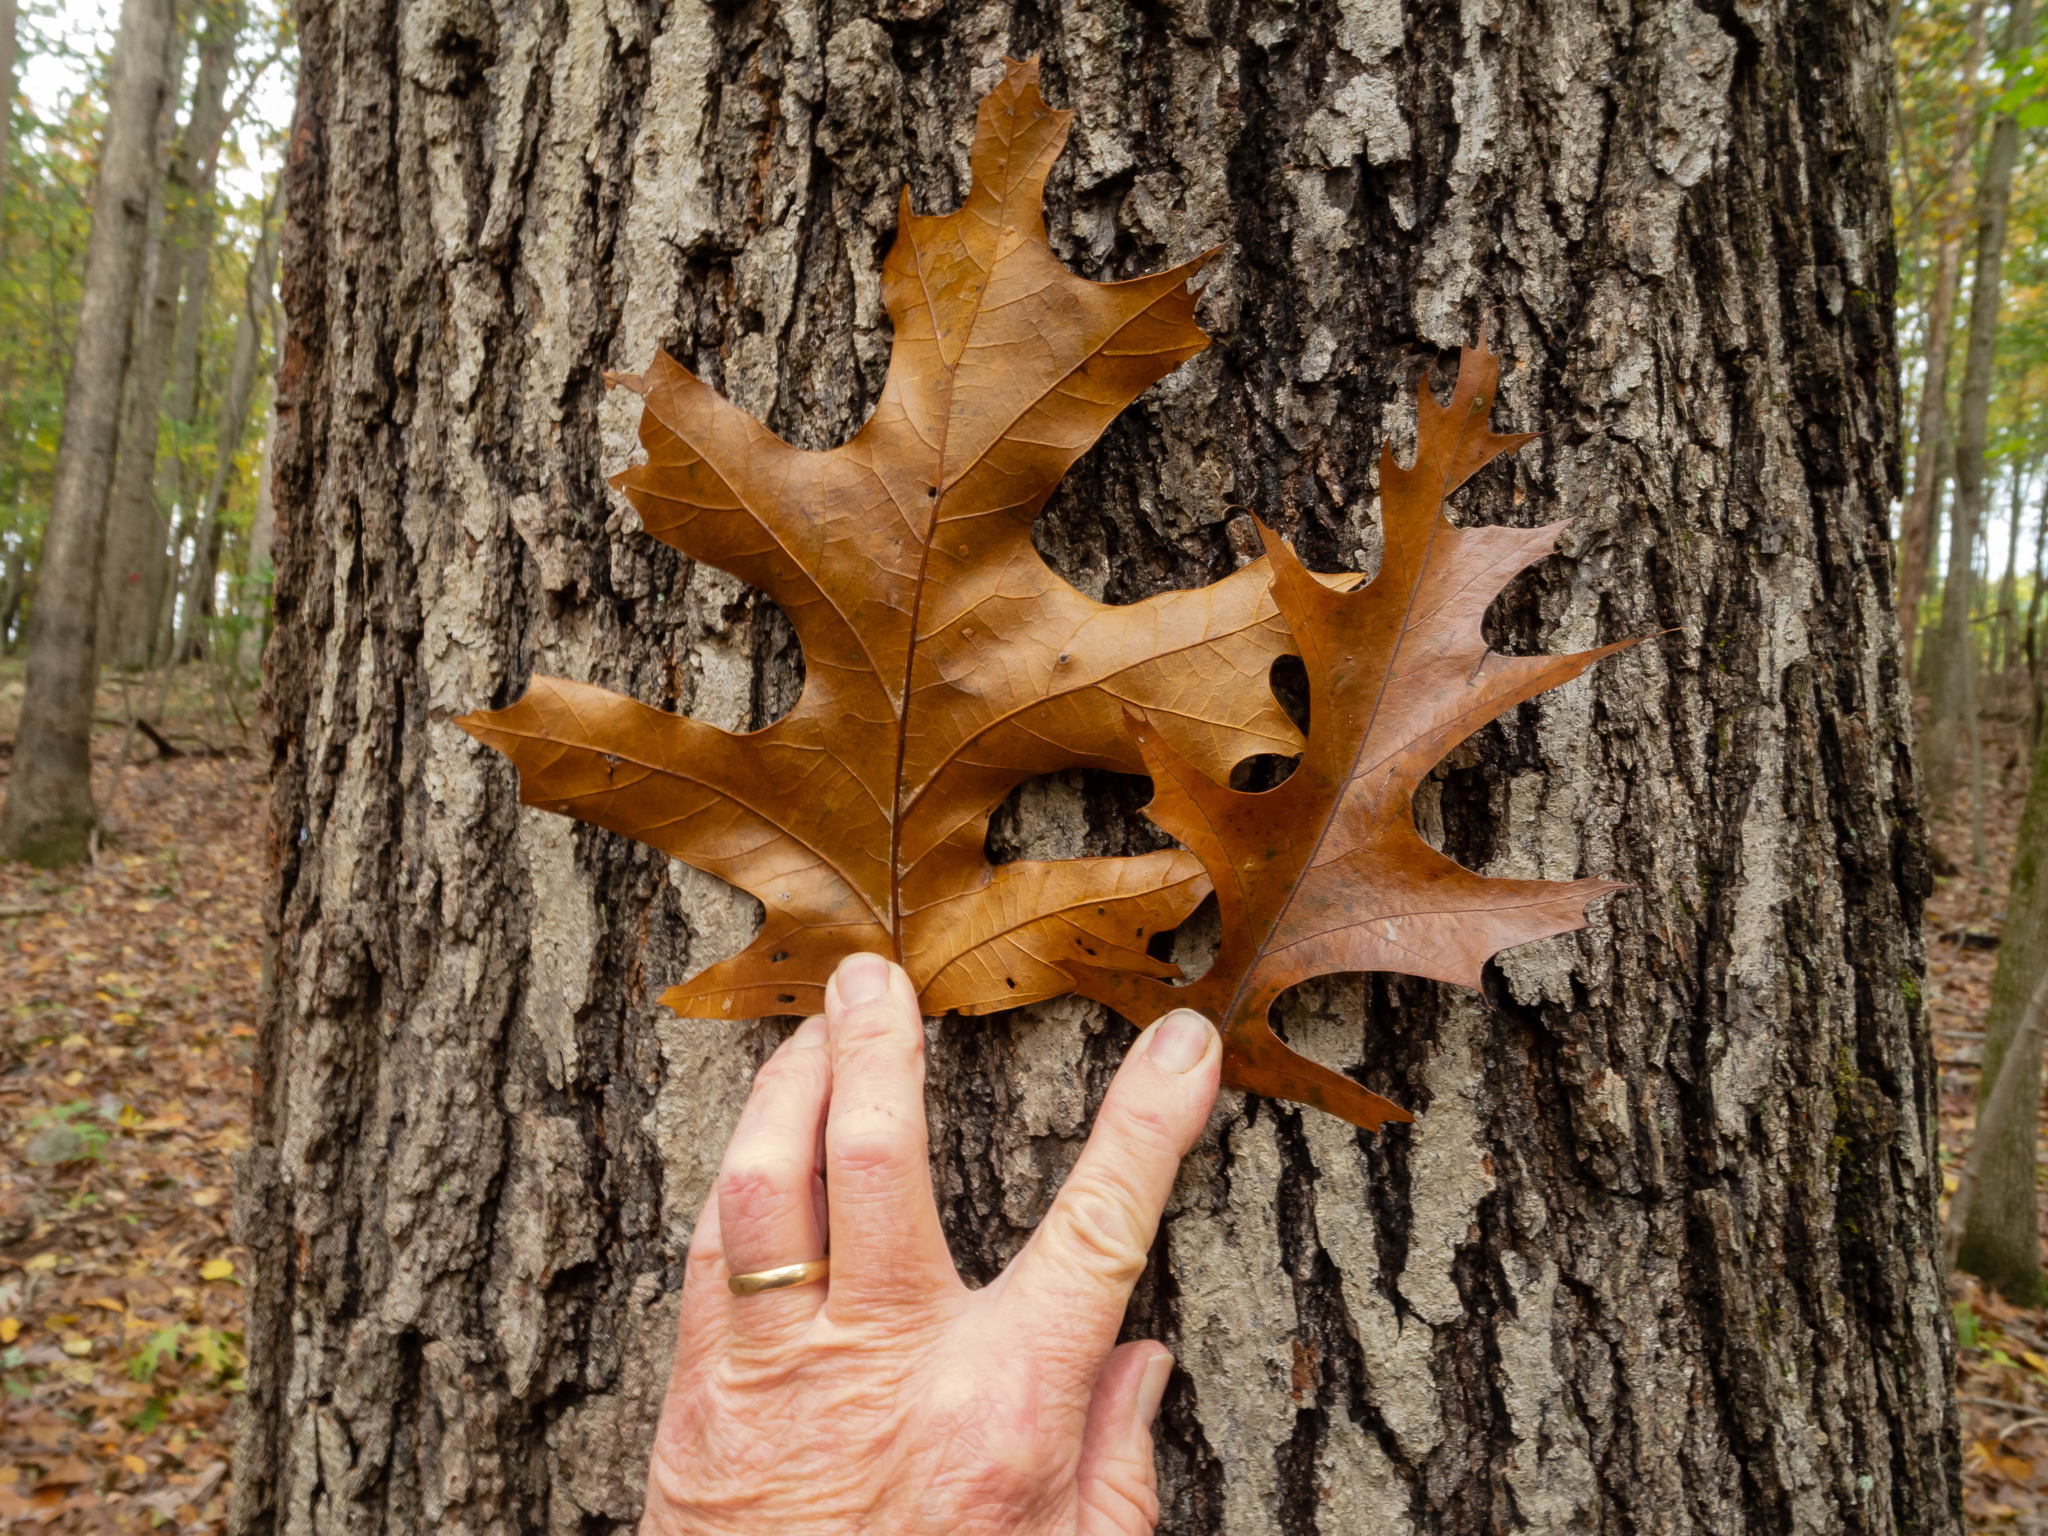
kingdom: Plantae
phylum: Tracheophyta
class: Magnoliopsida
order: Fagales
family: Fagaceae
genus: Quercus
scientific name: Quercus velutina
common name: Black oak
